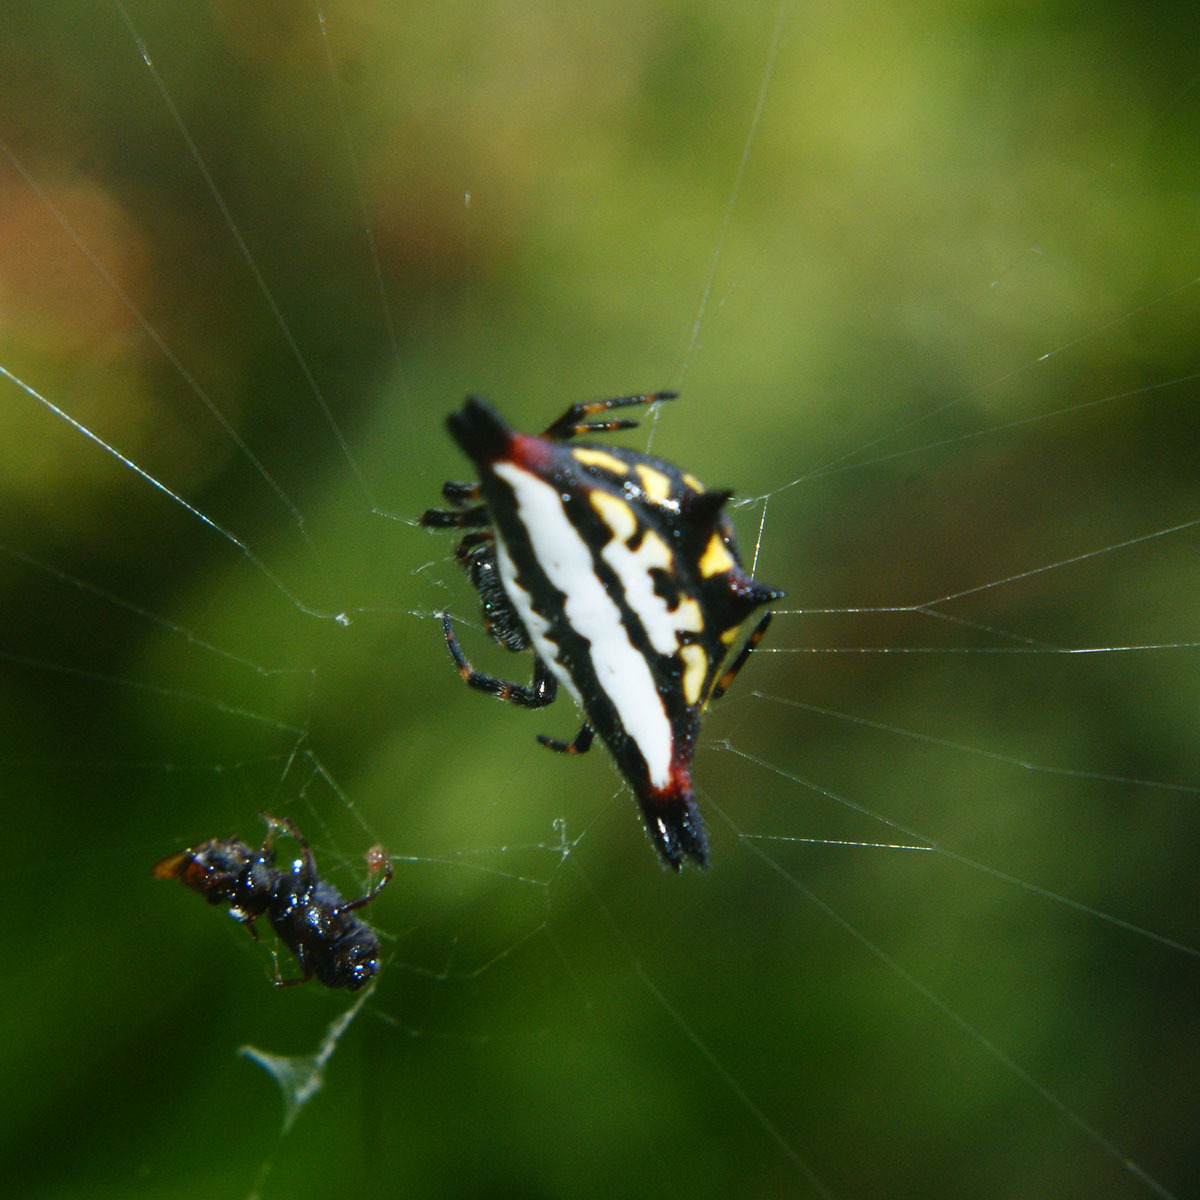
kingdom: Animalia
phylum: Arthropoda
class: Arachnida
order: Araneae
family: Araneidae
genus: Gasteracantha
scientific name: Gasteracantha geminata
